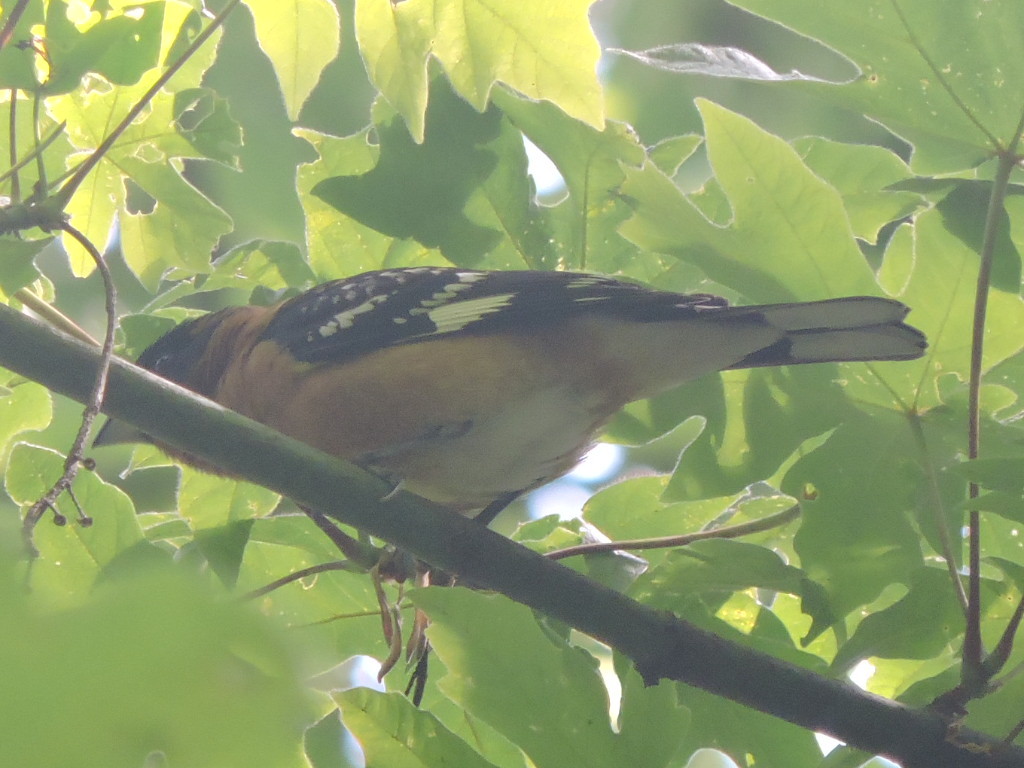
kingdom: Animalia
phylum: Chordata
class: Aves
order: Passeriformes
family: Cardinalidae
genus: Pheucticus
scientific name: Pheucticus melanocephalus
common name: Black-headed grosbeak
